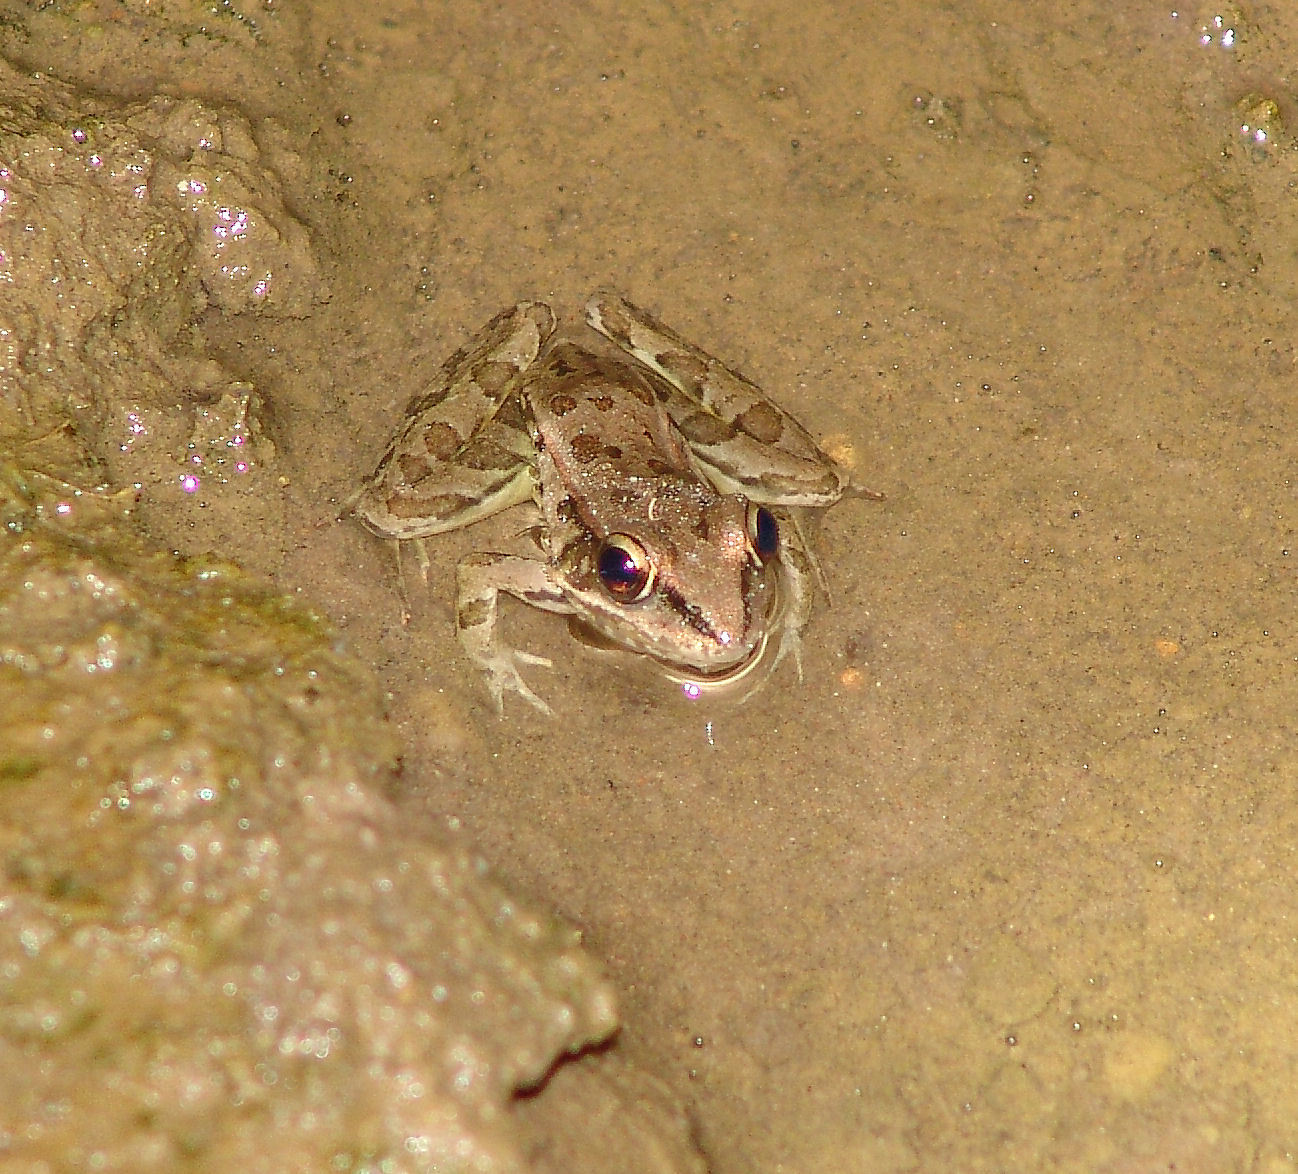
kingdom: Animalia
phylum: Chordata
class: Amphibia
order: Anura
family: Ranidae
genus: Lithobates
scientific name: Lithobates sphenocephalus
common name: Southern leopard frog
